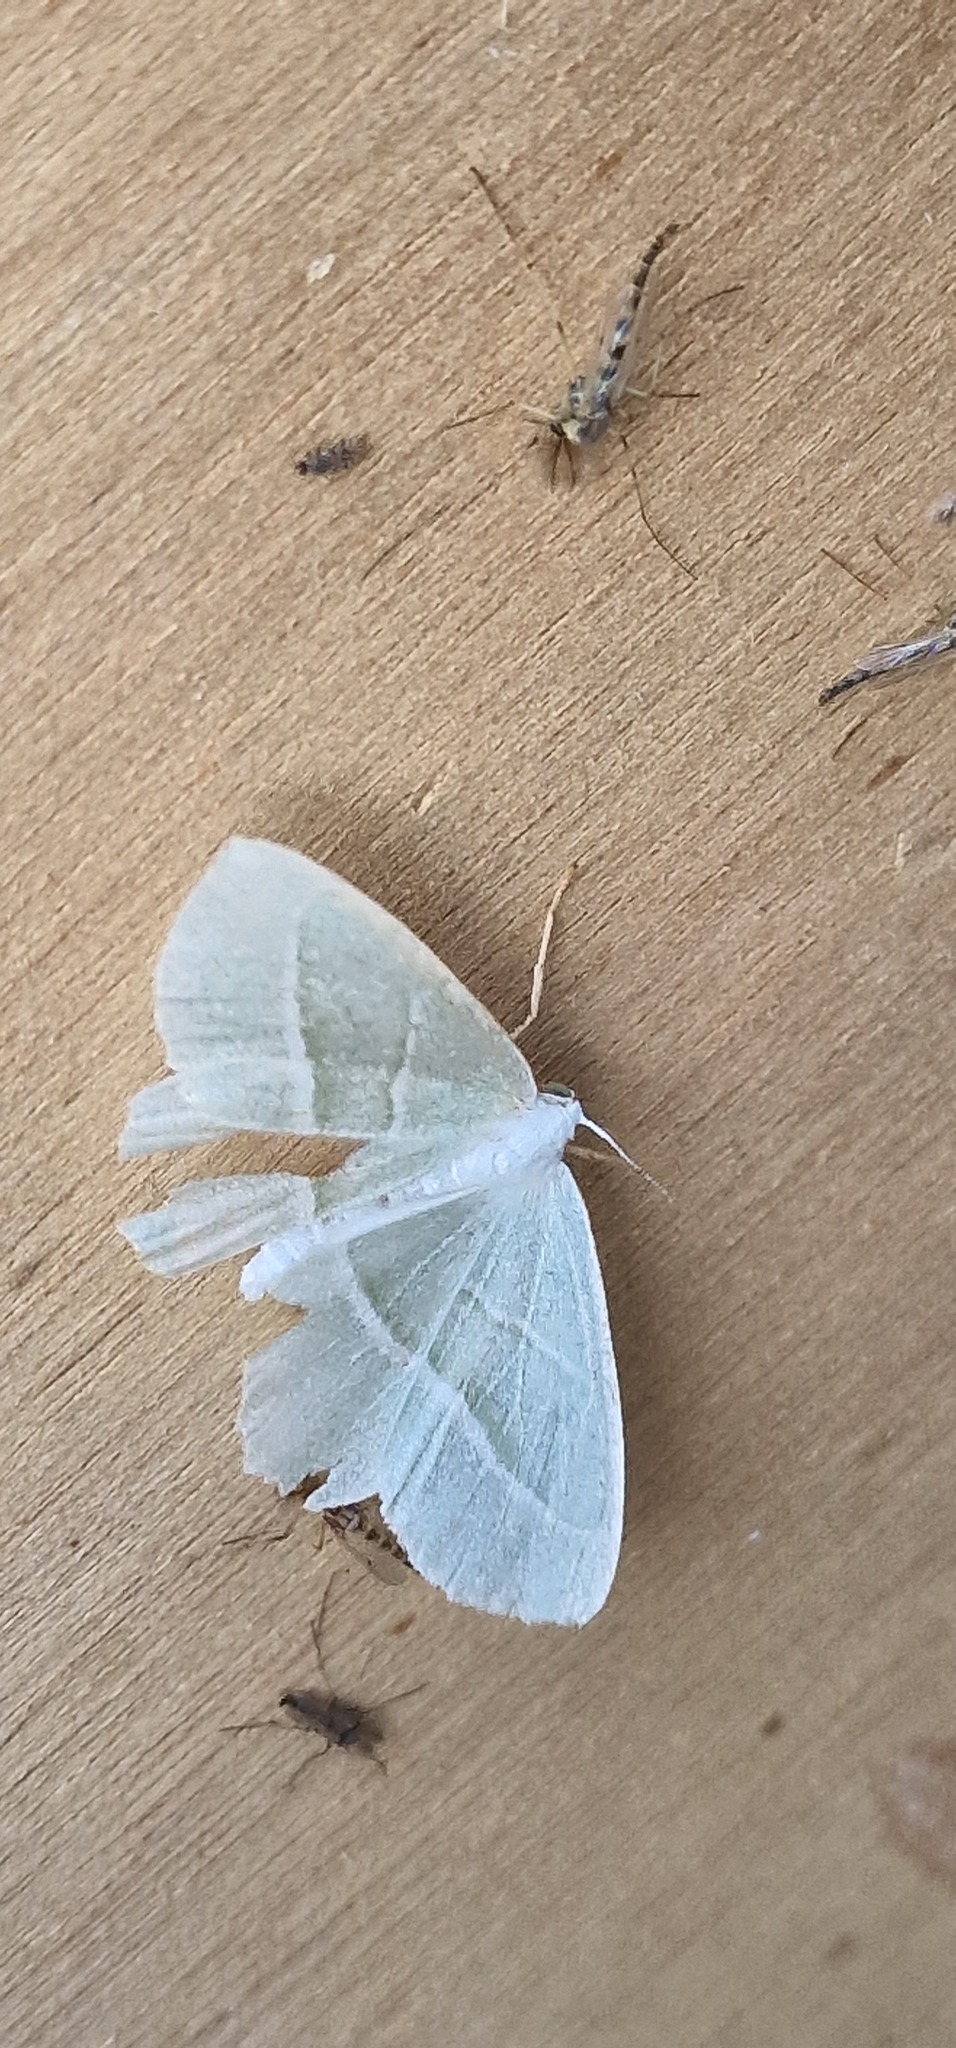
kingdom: Animalia
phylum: Arthropoda
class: Insecta
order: Lepidoptera
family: Geometridae
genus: Campaea
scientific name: Campaea margaritaria
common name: Light emerald
